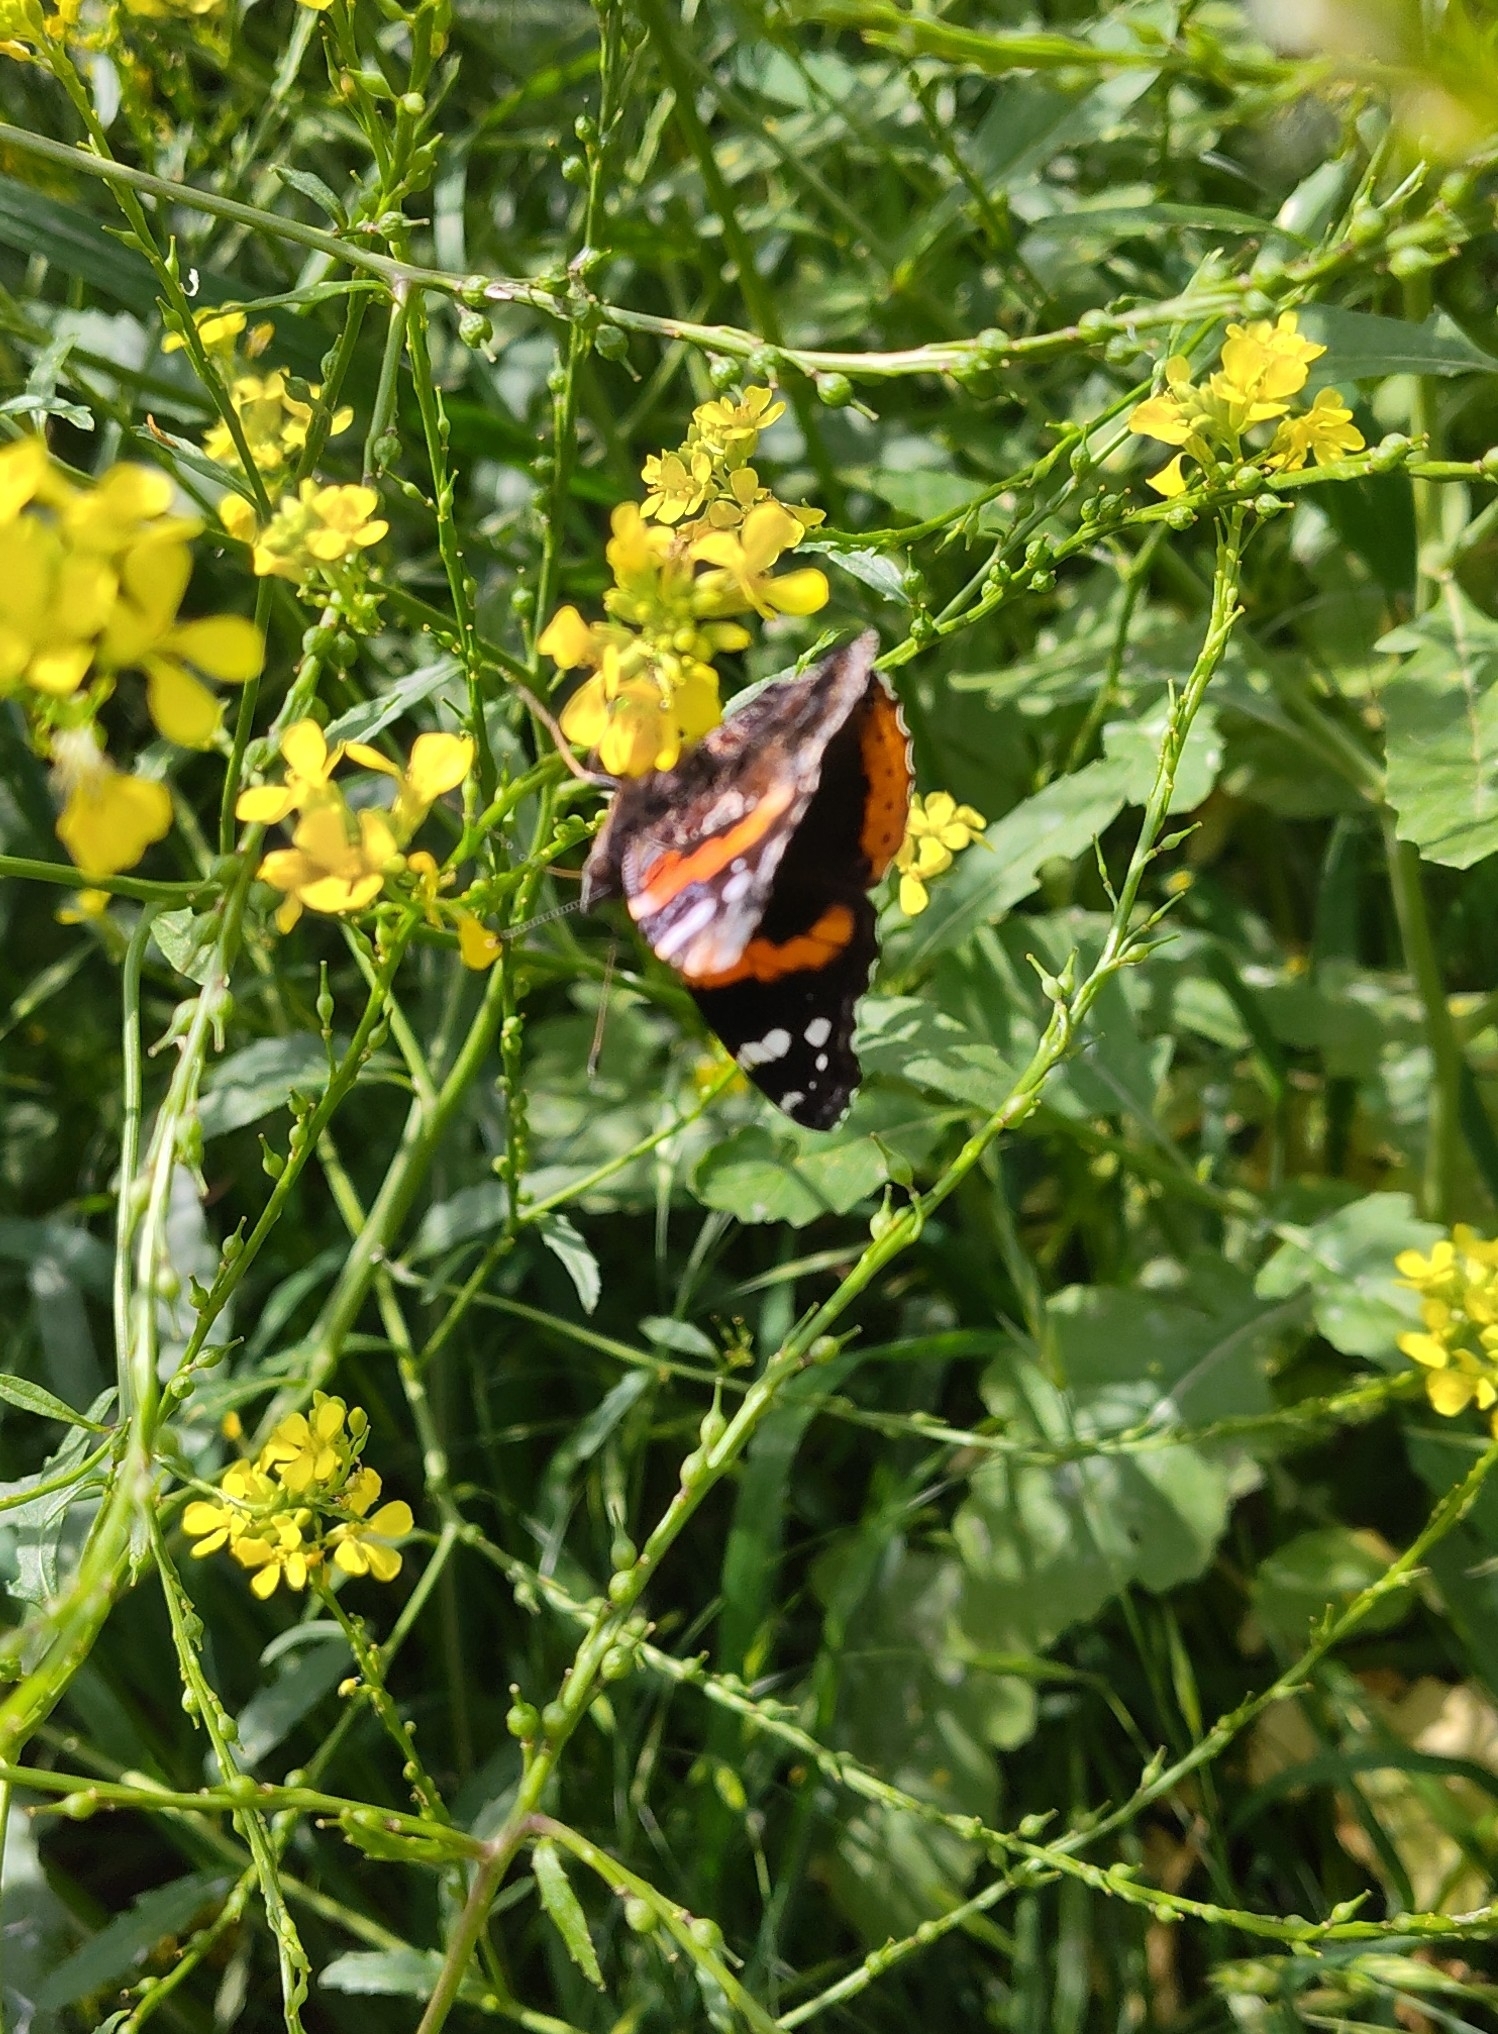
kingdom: Animalia
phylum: Arthropoda
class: Insecta
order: Lepidoptera
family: Nymphalidae
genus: Vanessa
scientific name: Vanessa atalanta
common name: Red admiral
